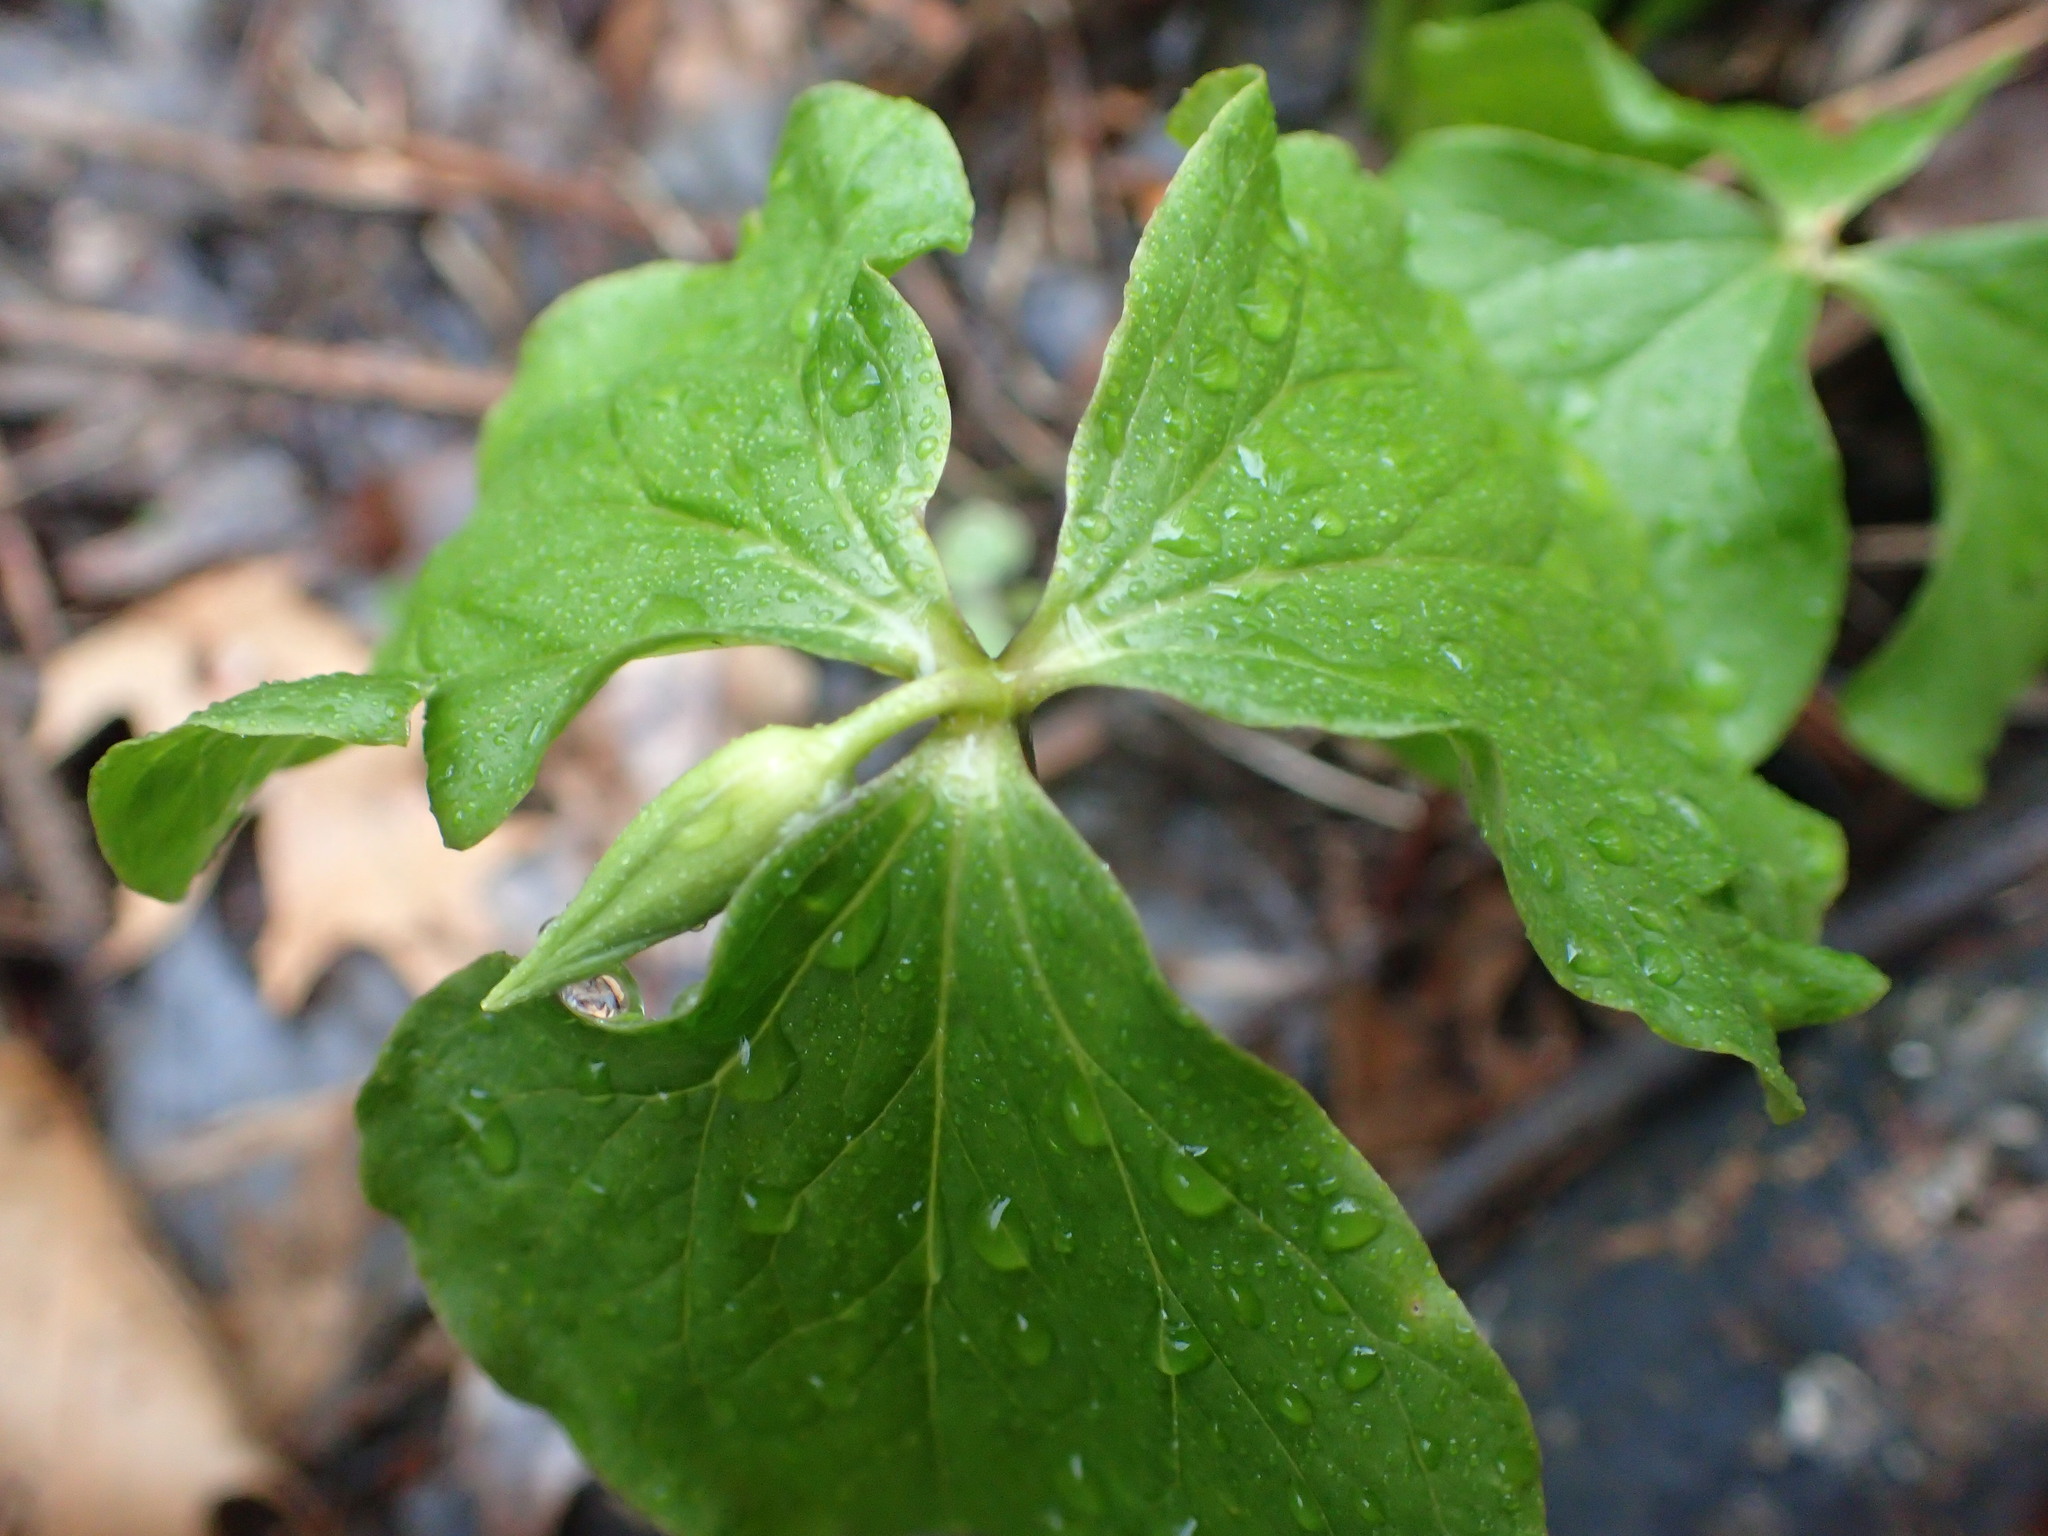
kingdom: Plantae
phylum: Tracheophyta
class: Liliopsida
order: Liliales
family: Melanthiaceae
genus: Trillium
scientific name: Trillium cernuum
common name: Nodding trillium
